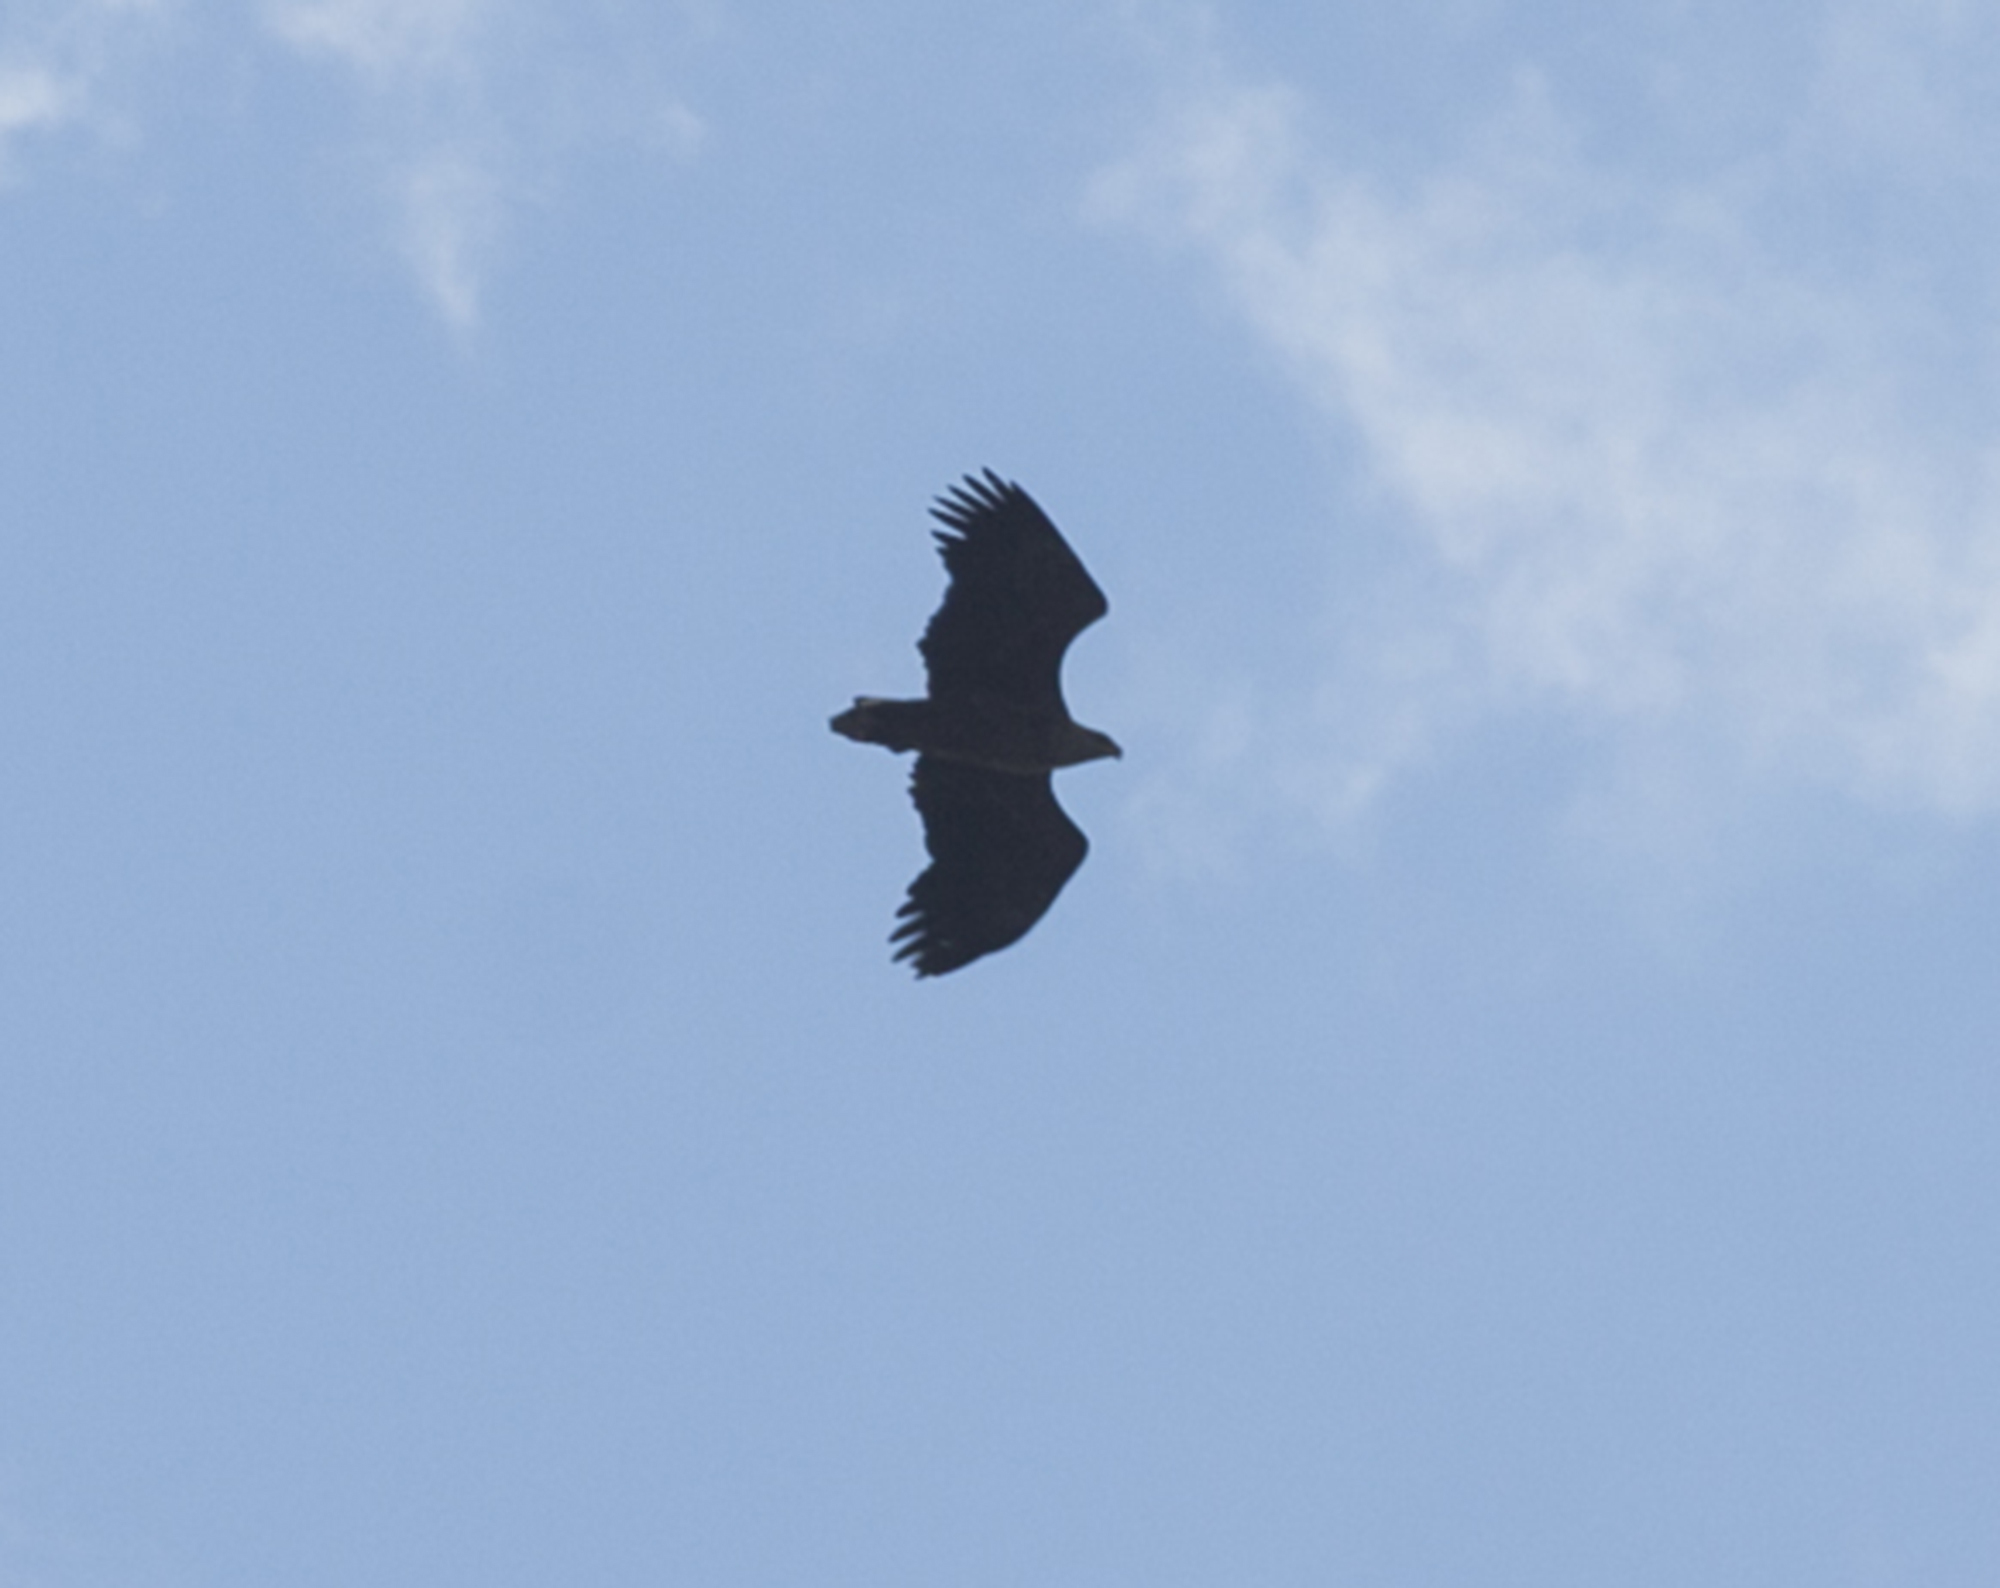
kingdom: Animalia
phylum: Chordata
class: Aves
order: Accipitriformes
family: Accipitridae
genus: Haliaeetus
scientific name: Haliaeetus albicilla
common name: White-tailed eagle
